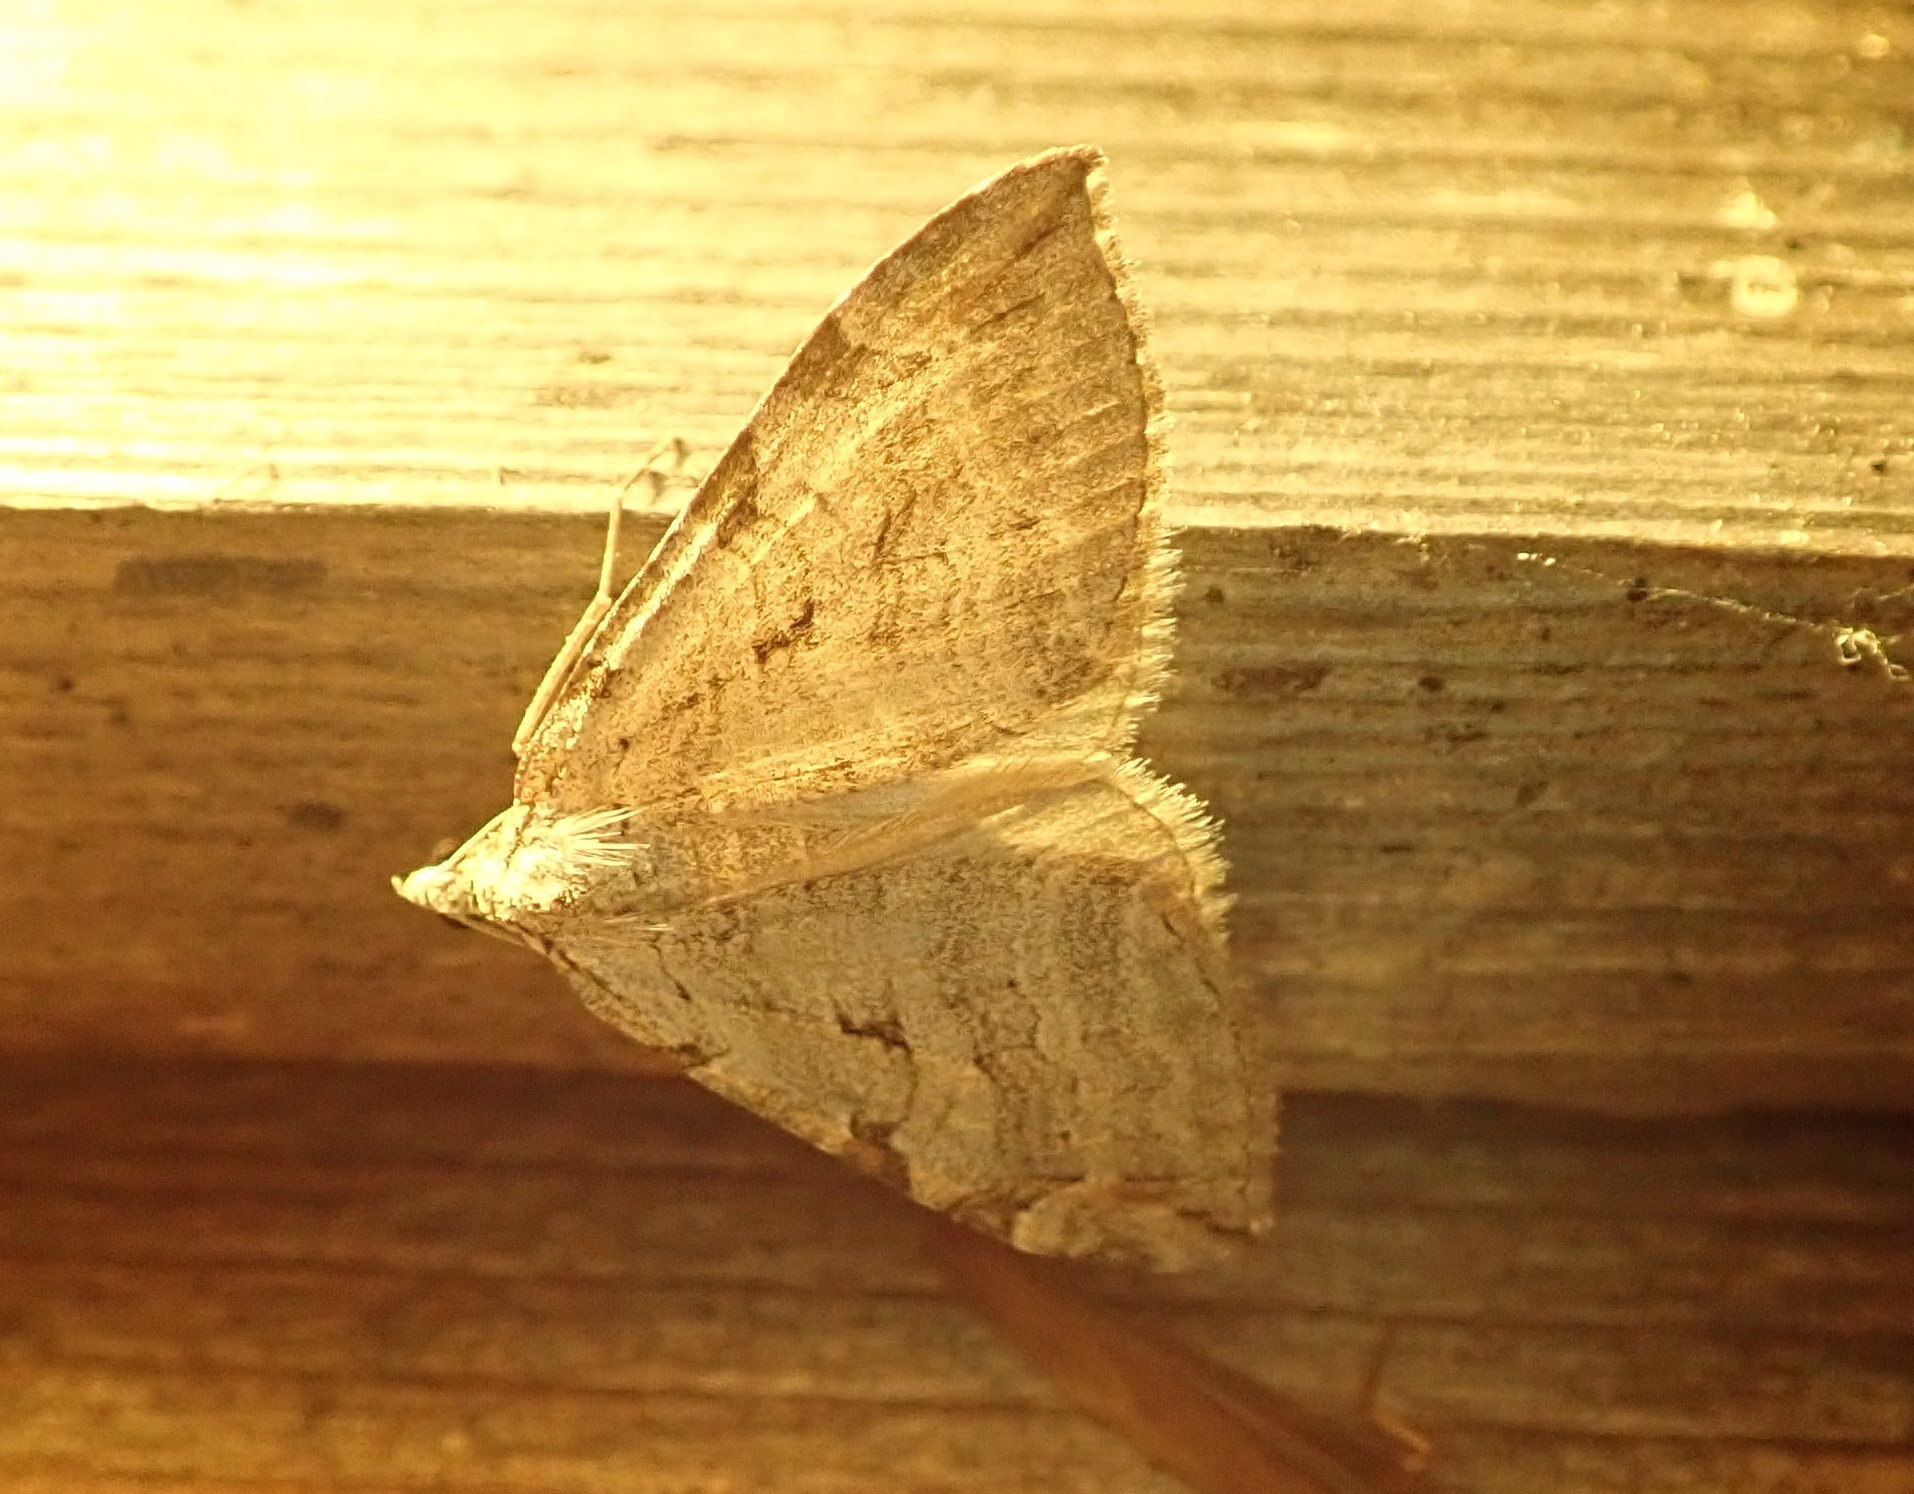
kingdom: Animalia
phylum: Arthropoda
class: Insecta
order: Lepidoptera
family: Geometridae
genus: Aplocera
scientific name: Aplocera plagiata
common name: Treble-bar
